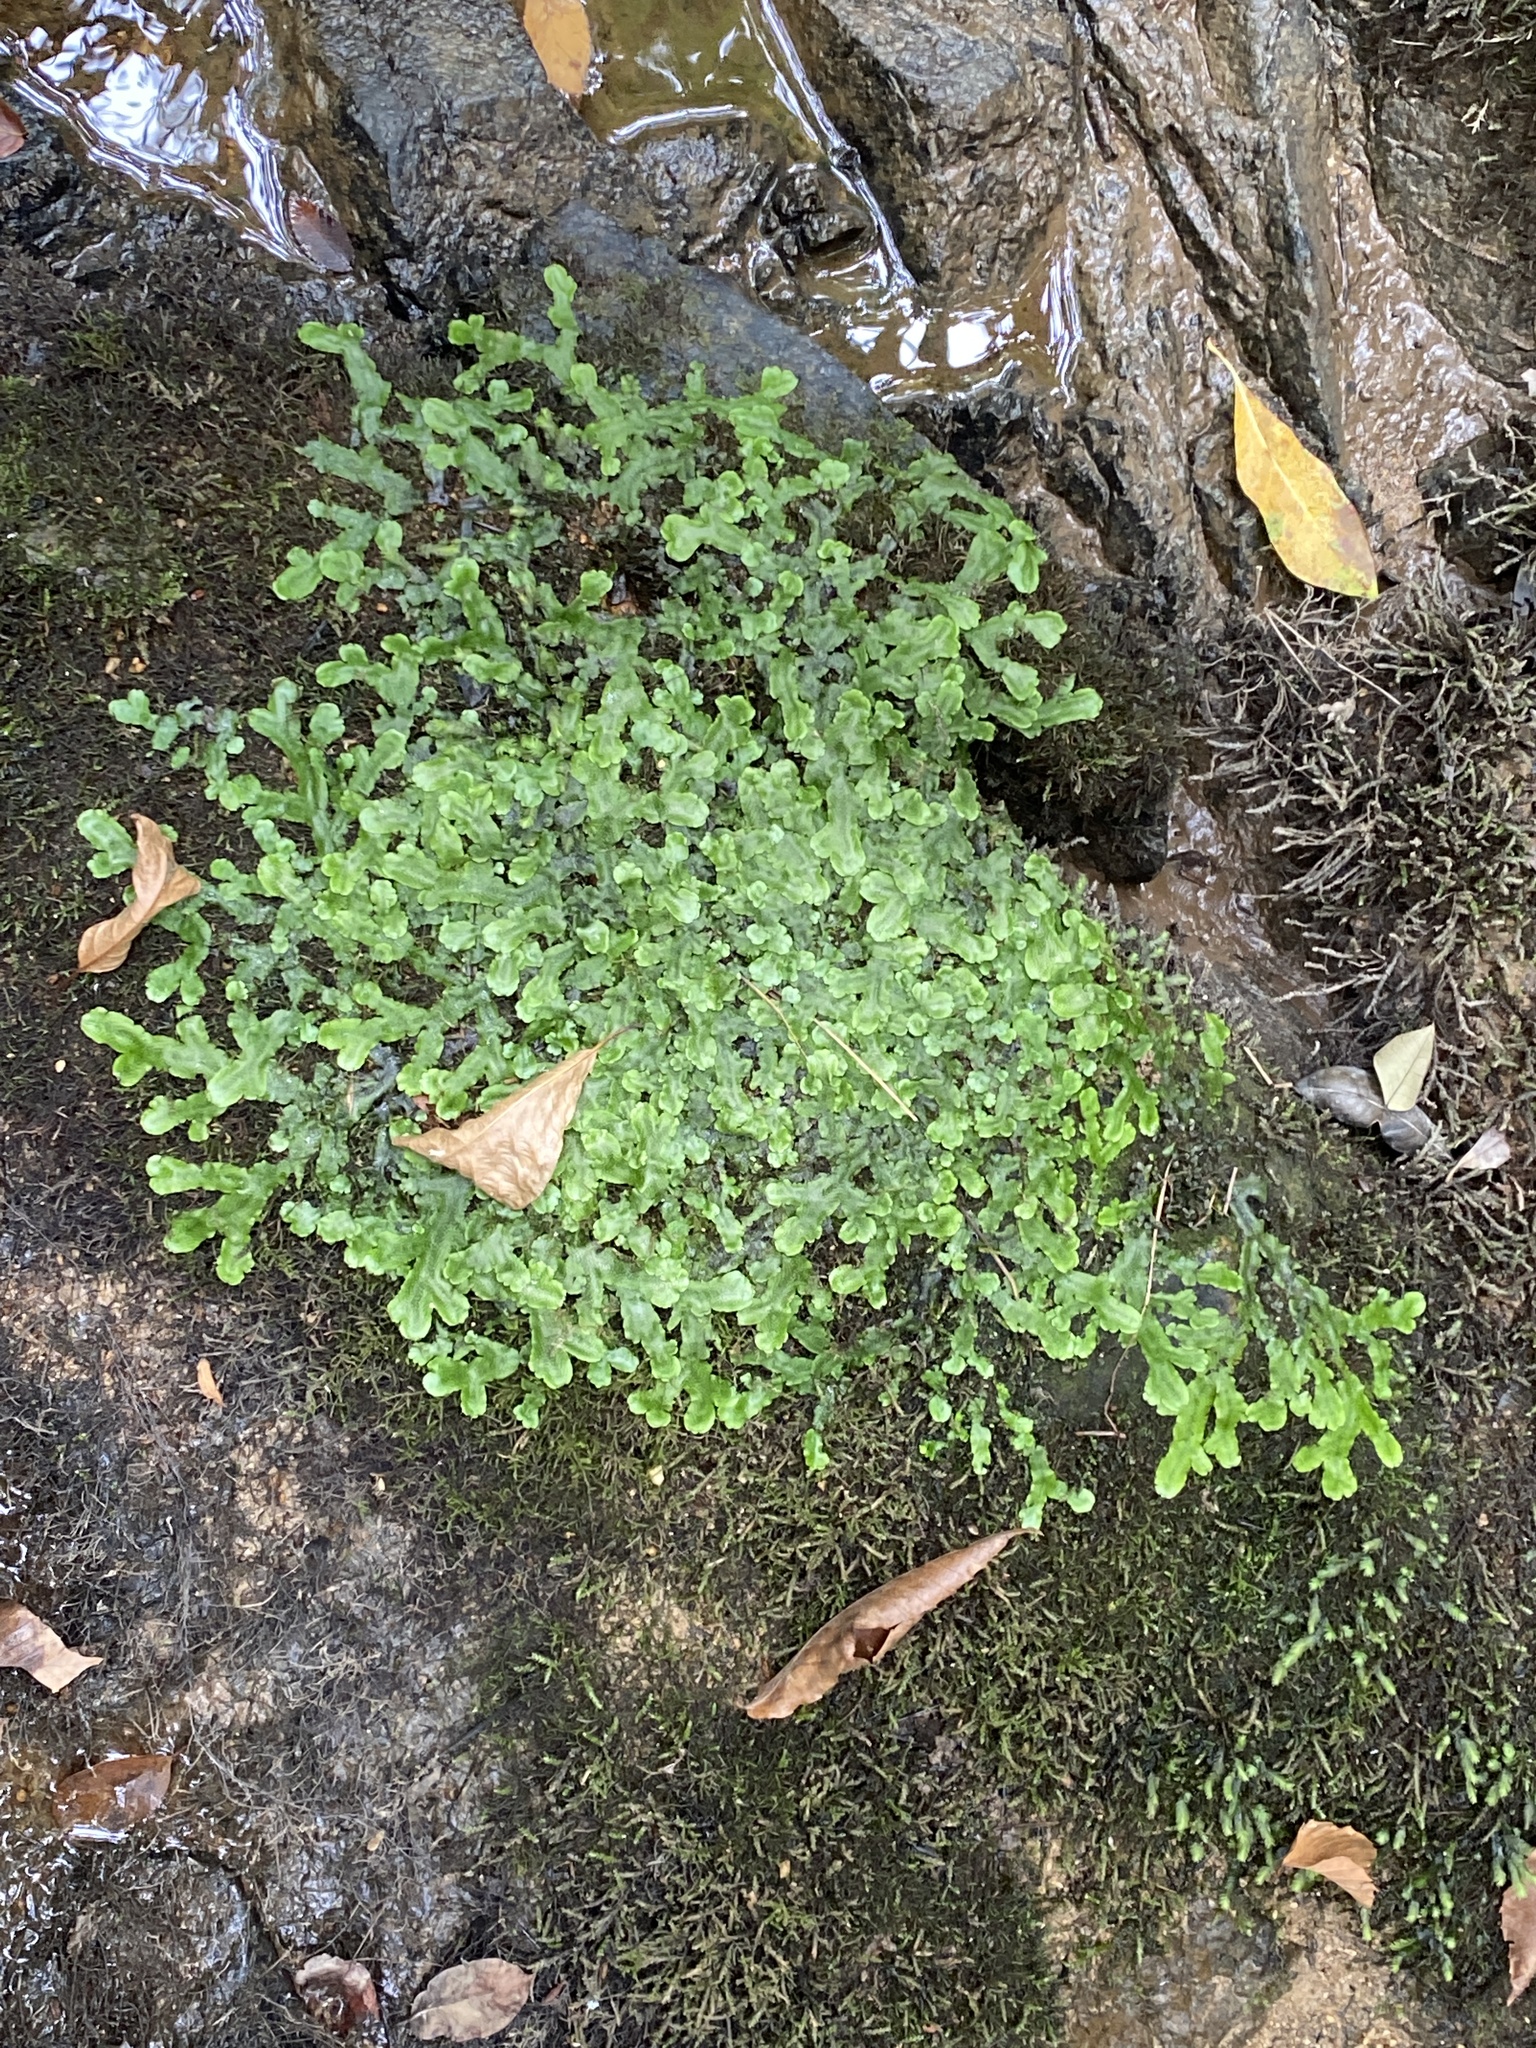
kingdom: Plantae
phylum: Marchantiophyta
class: Marchantiopsida
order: Marchantiales
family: Conocephalaceae
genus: Conocephalum
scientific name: Conocephalum salebrosum
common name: Cat-tongue liverwort
